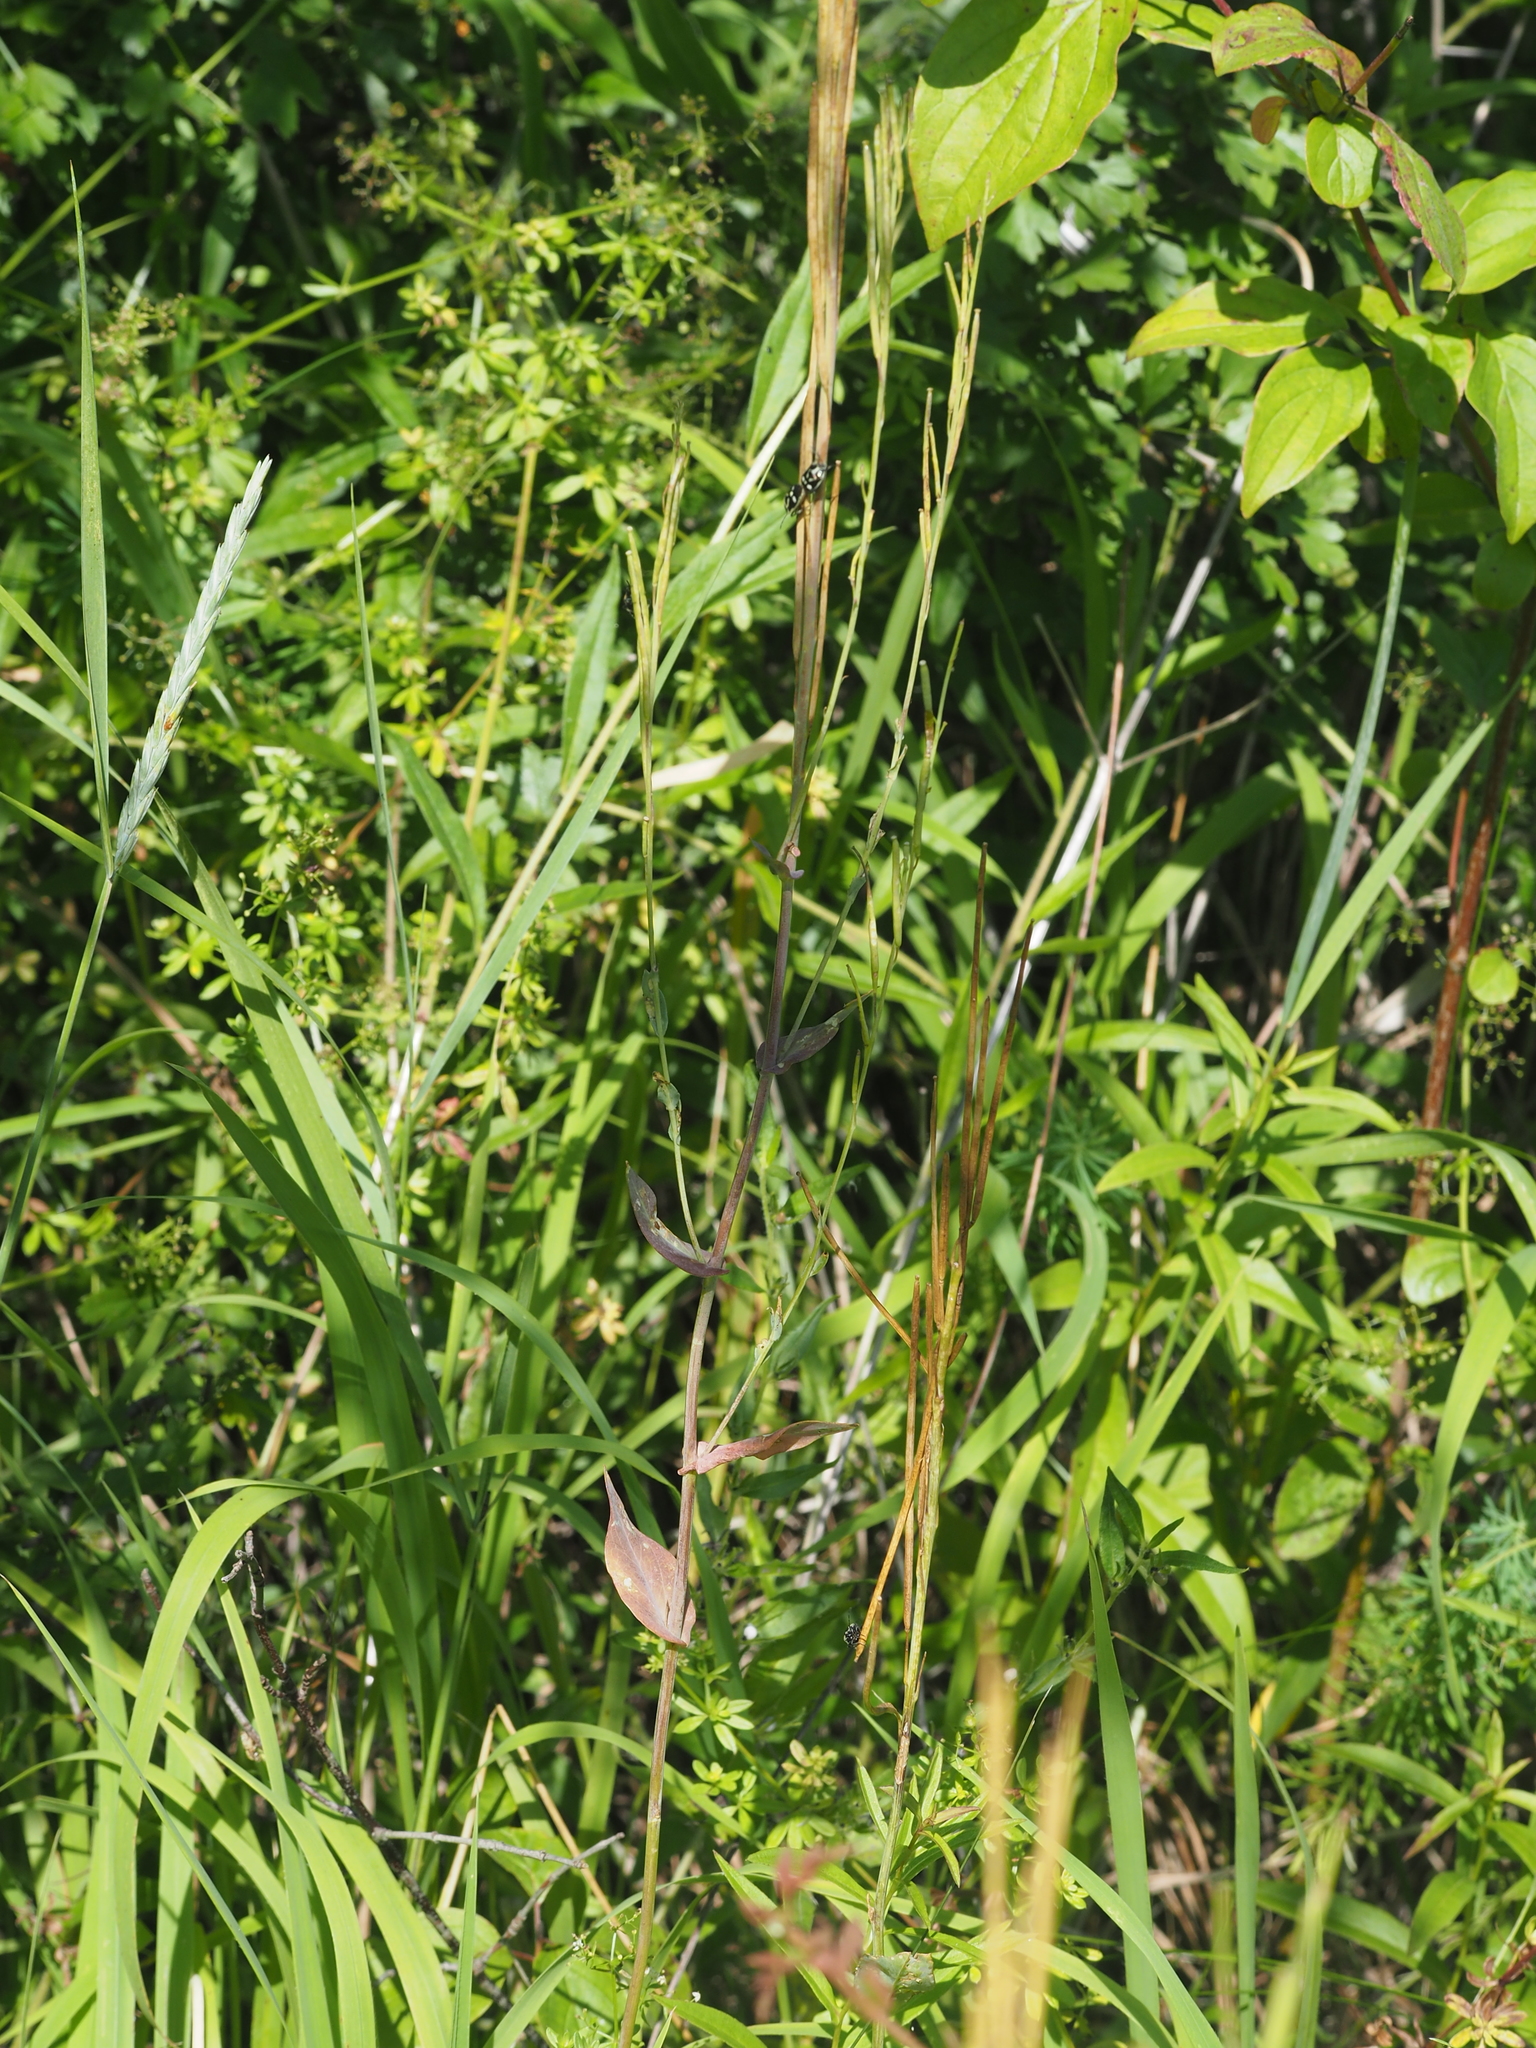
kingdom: Plantae
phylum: Tracheophyta
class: Magnoliopsida
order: Brassicales
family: Brassicaceae
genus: Turritis
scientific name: Turritis glabra
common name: Tower rockcress
